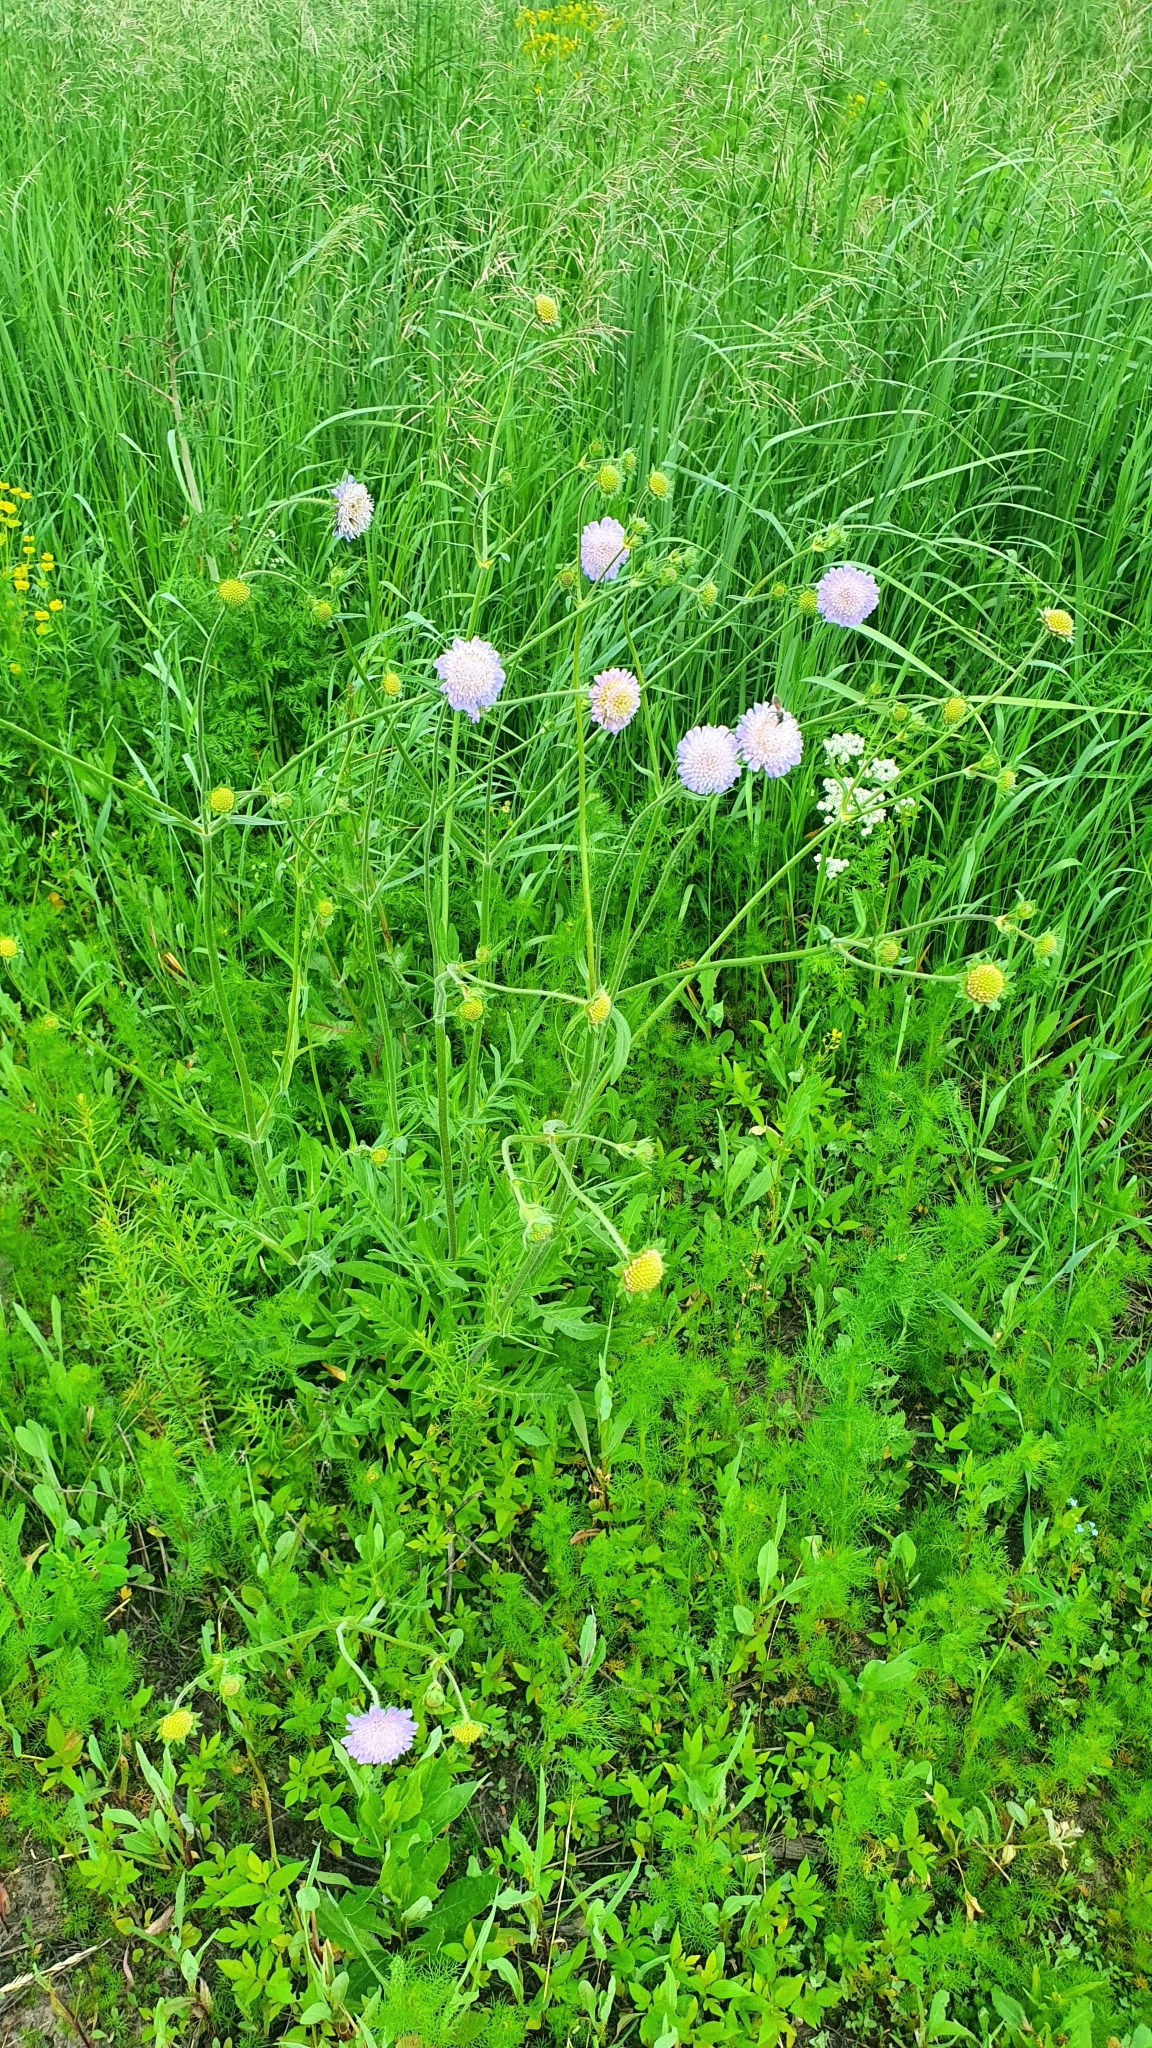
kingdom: Plantae
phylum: Tracheophyta
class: Magnoliopsida
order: Dipsacales
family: Caprifoliaceae
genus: Knautia
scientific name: Knautia arvensis
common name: Field scabiosa
